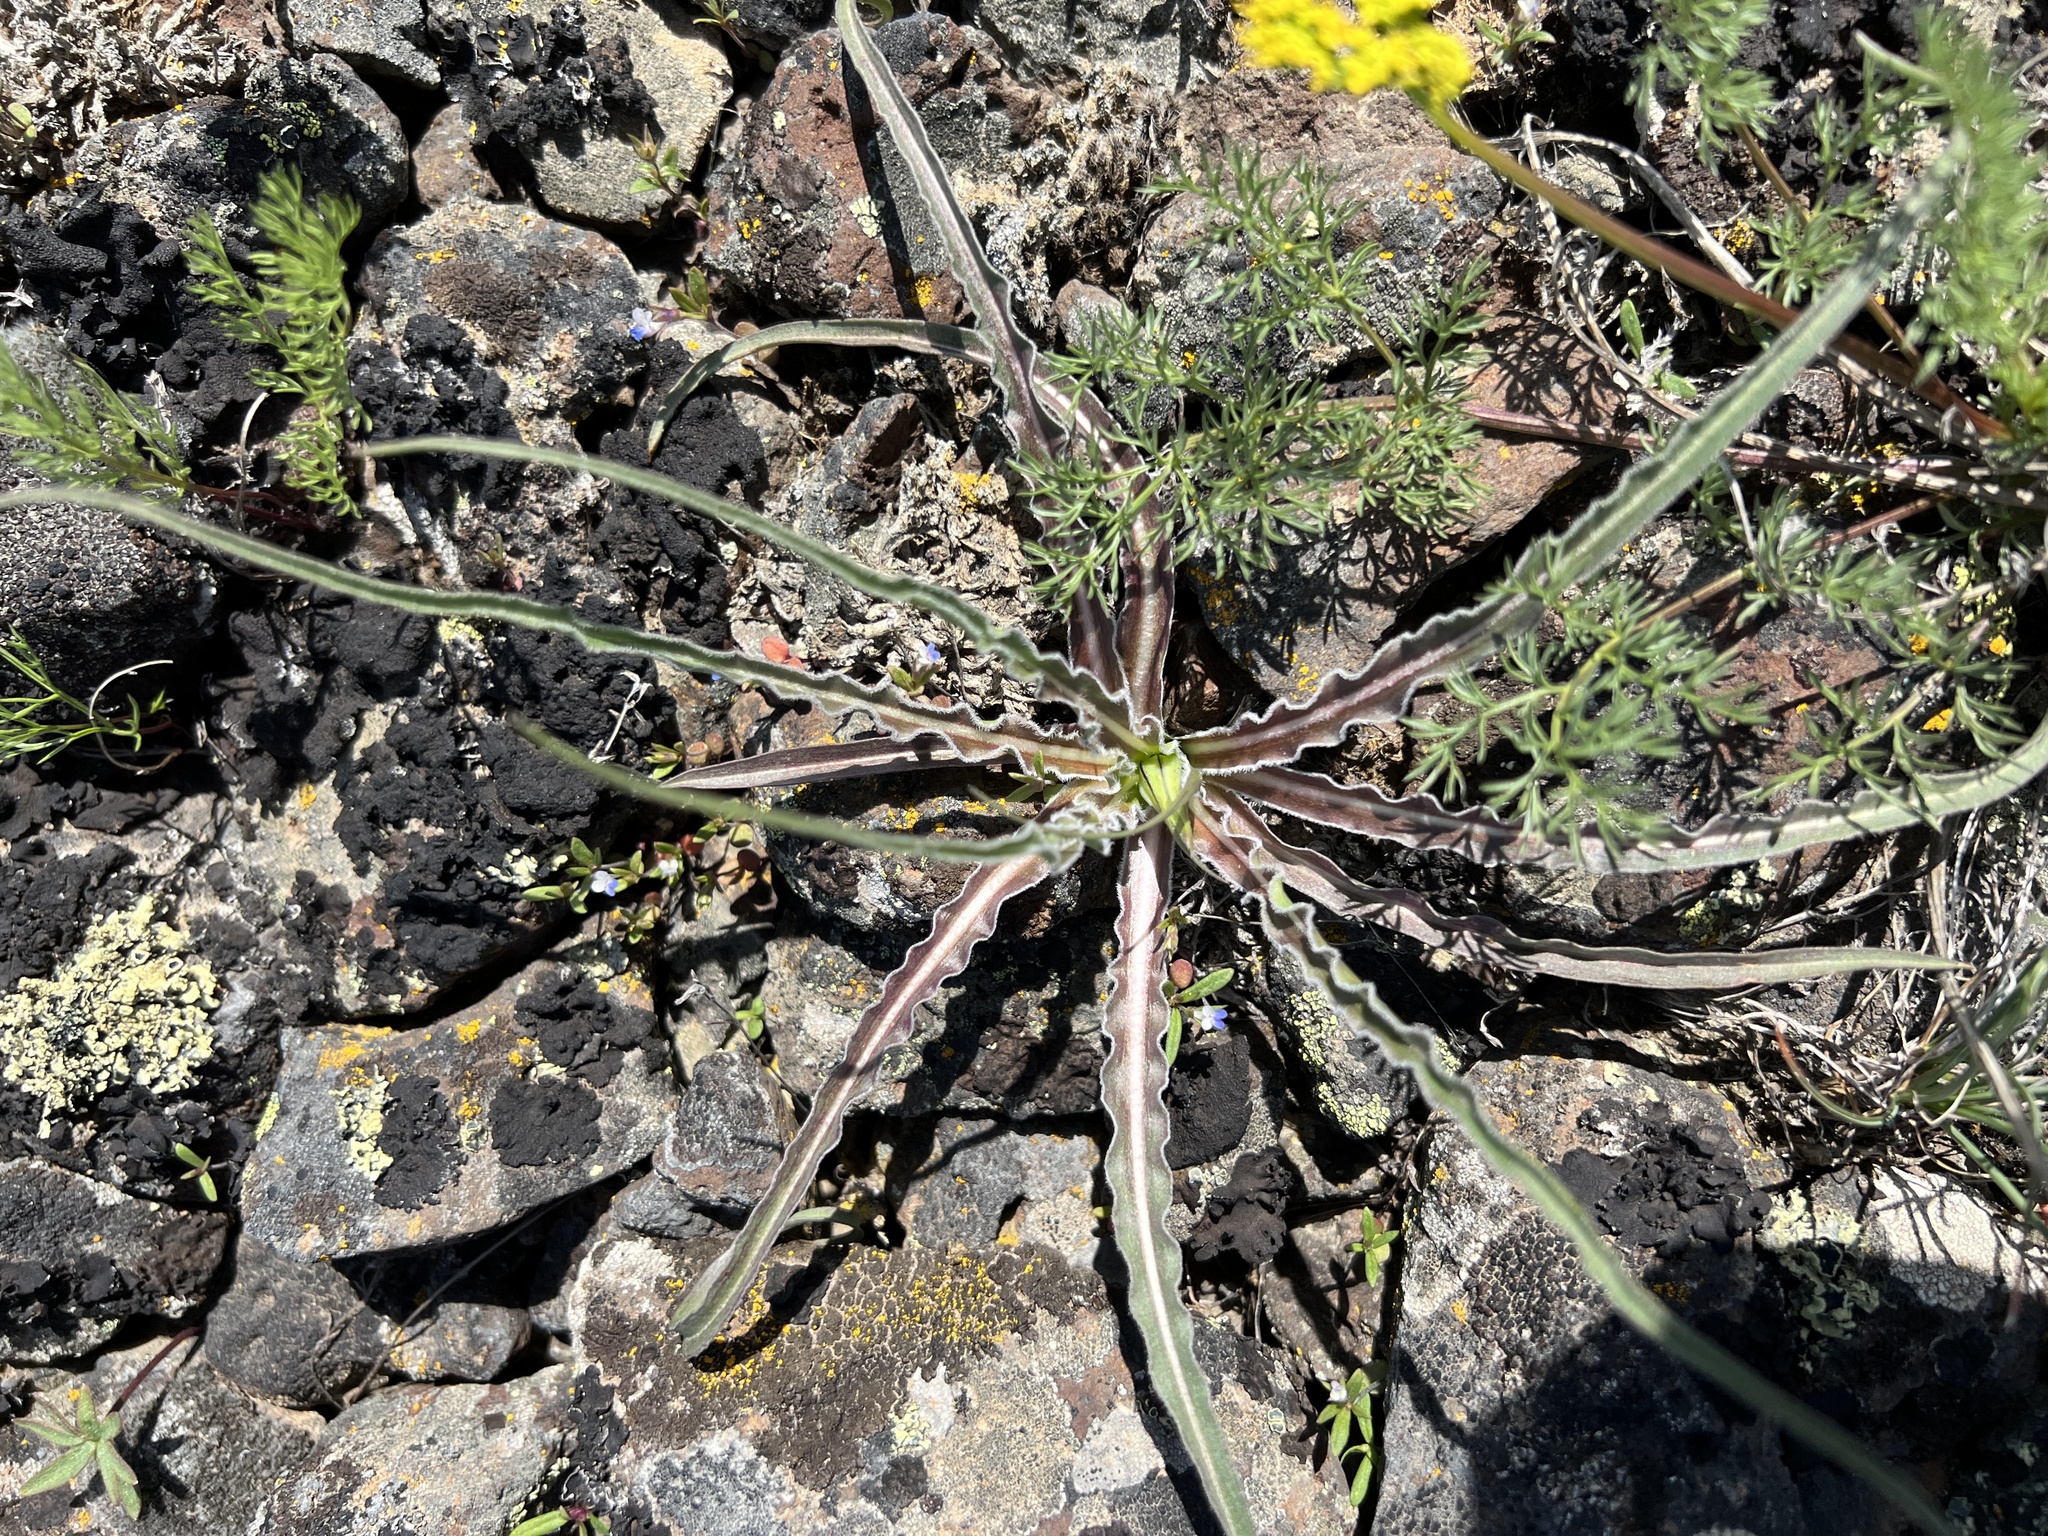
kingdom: Plantae
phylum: Tracheophyta
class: Magnoliopsida
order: Asterales
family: Asteraceae
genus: Microseris
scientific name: Microseris troximoides
